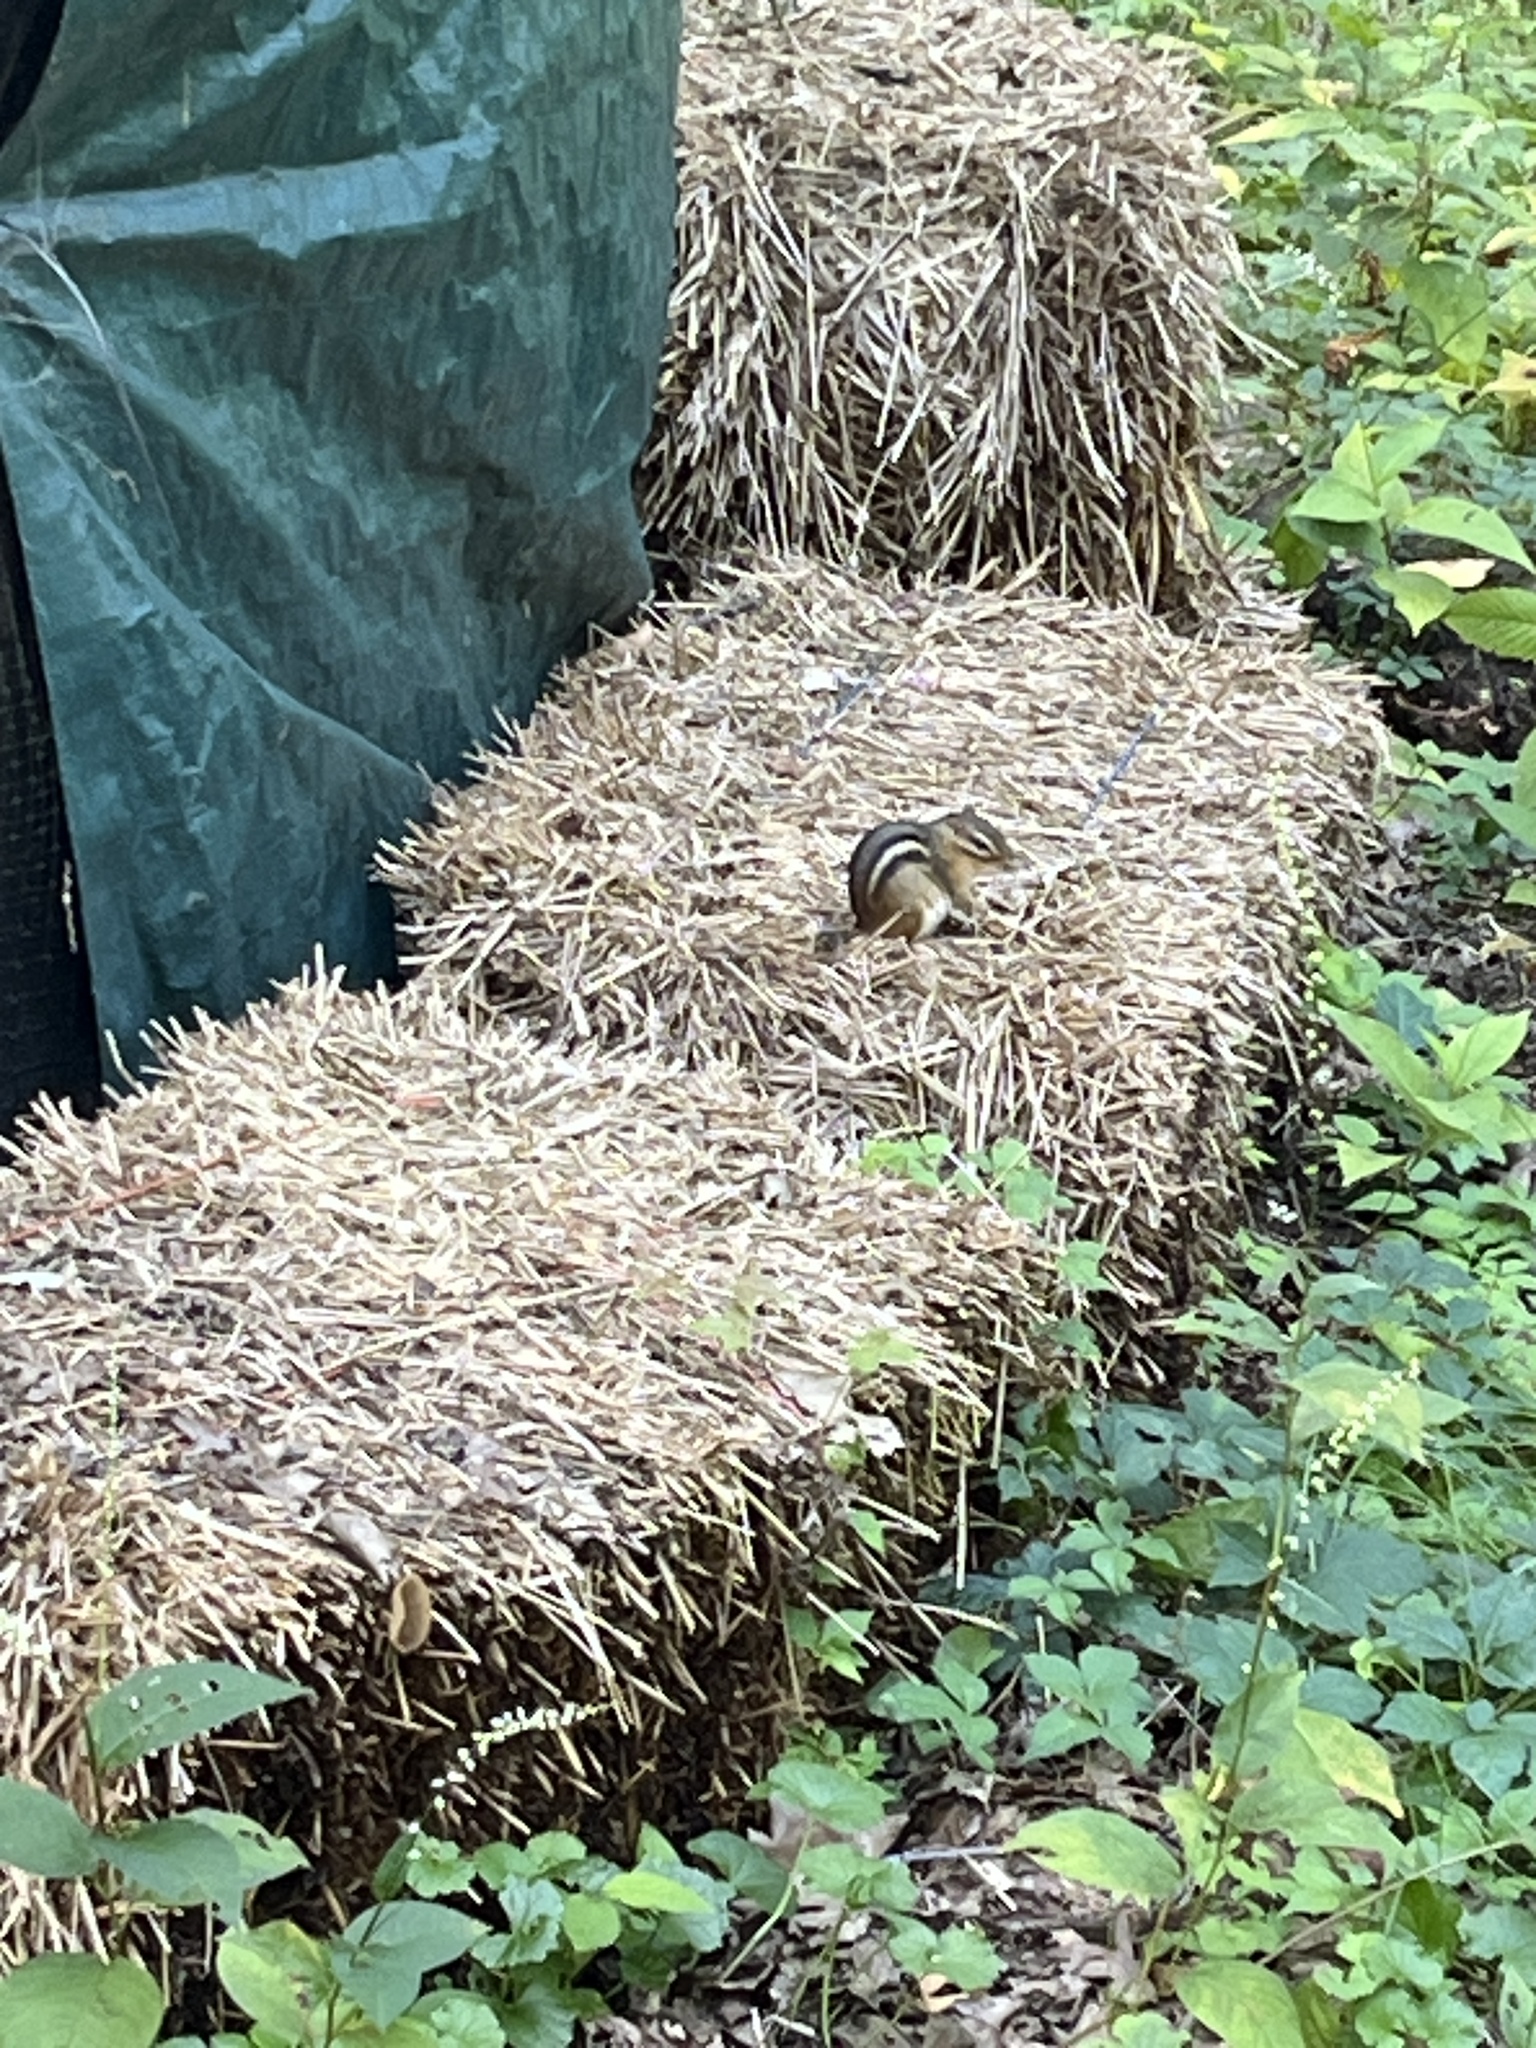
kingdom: Animalia
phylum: Chordata
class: Mammalia
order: Rodentia
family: Sciuridae
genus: Tamias
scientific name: Tamias striatus
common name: Eastern chipmunk
